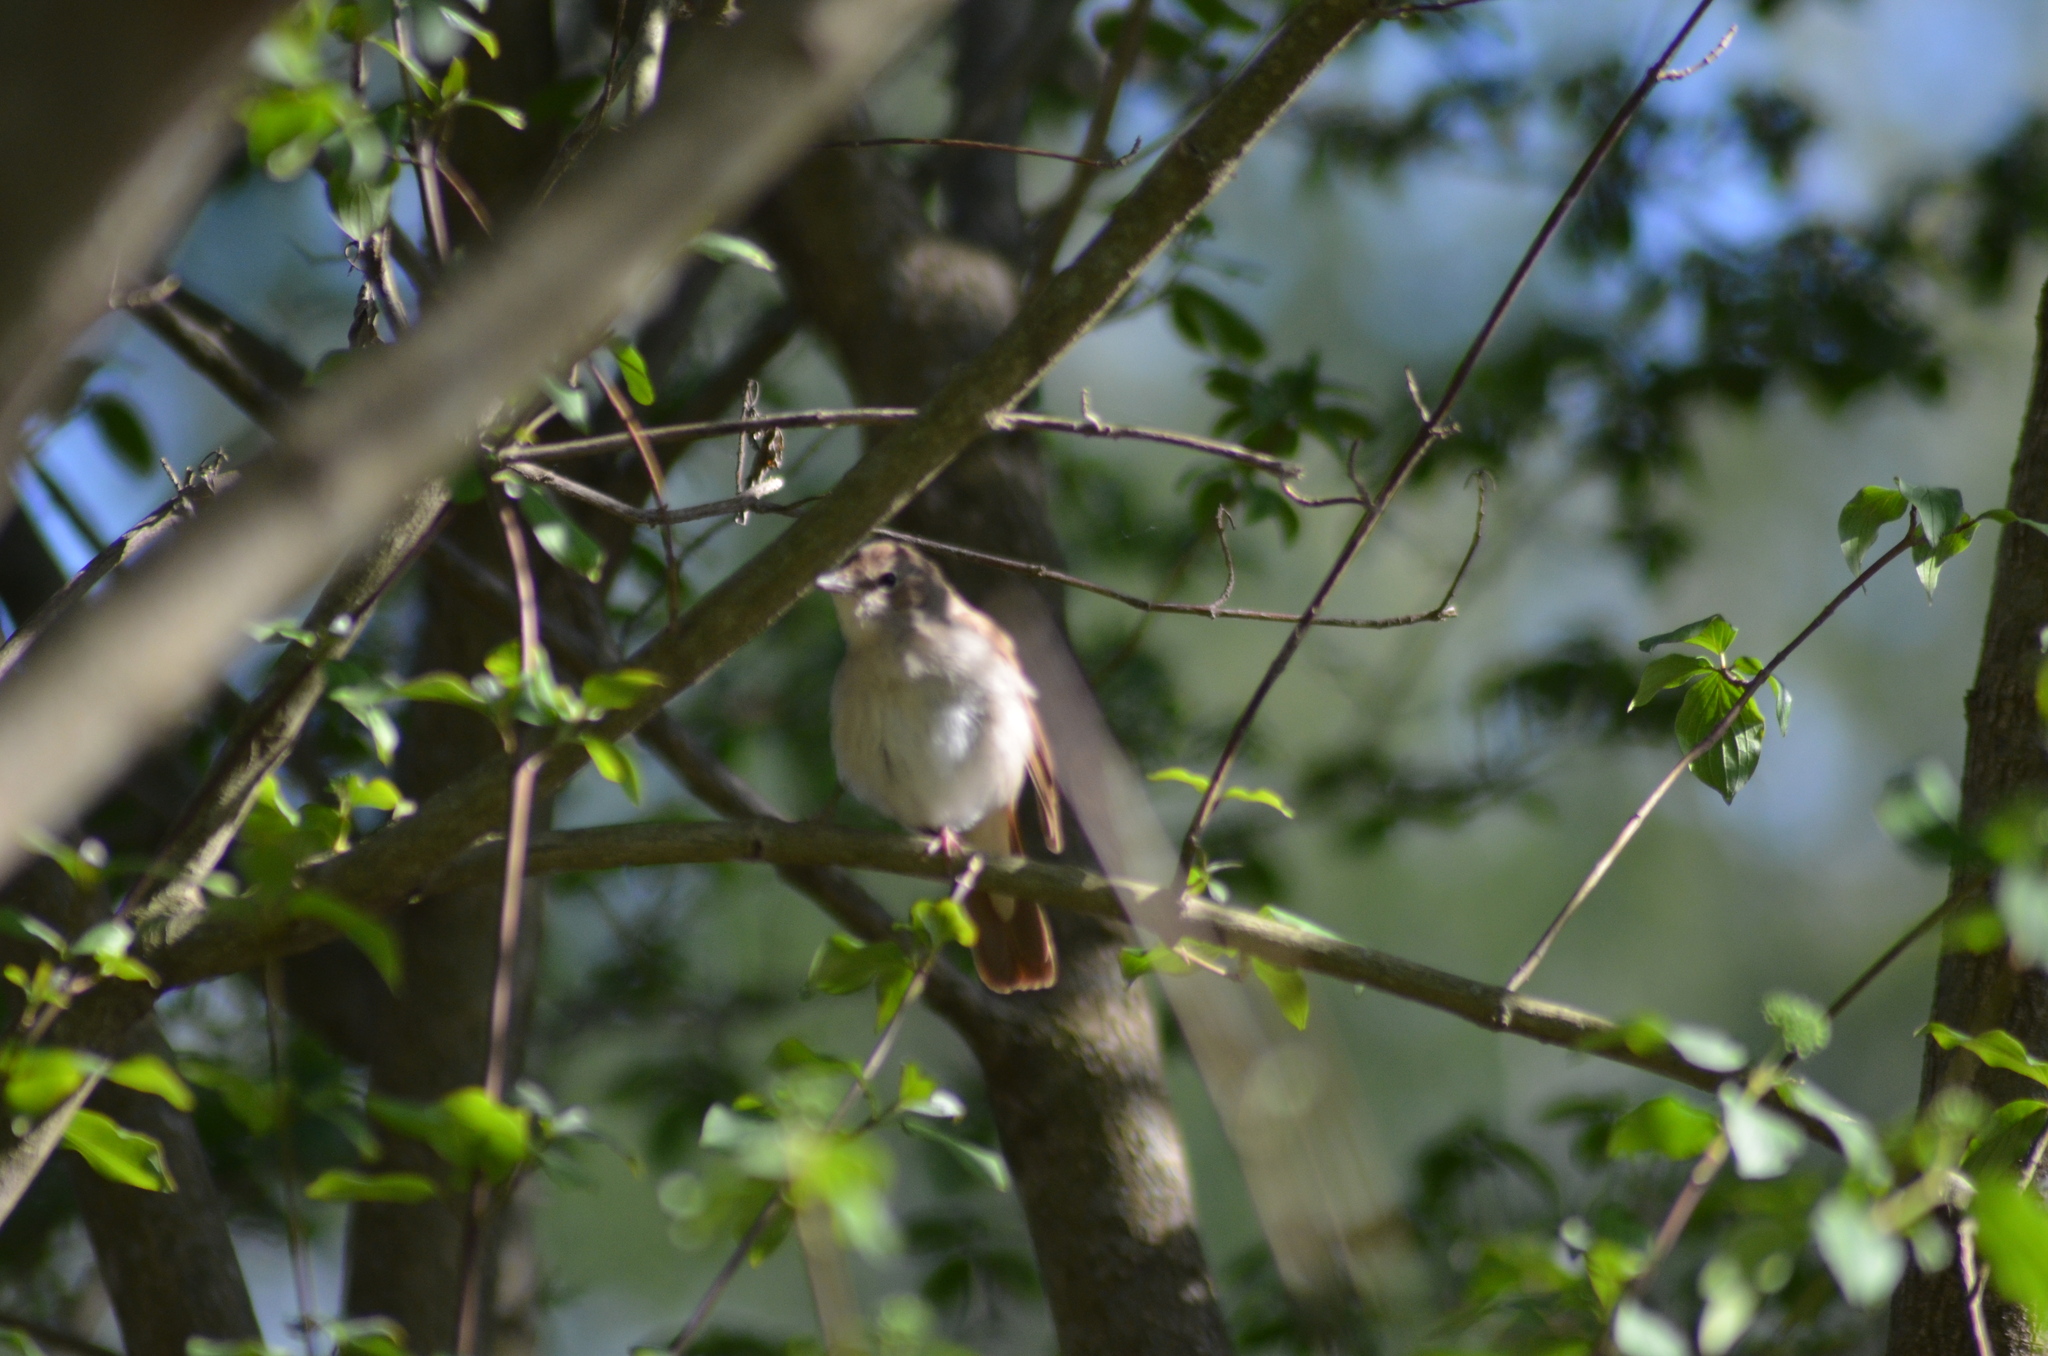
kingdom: Animalia
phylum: Chordata
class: Aves
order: Passeriformes
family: Muscicapidae
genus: Luscinia
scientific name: Luscinia megarhynchos
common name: Common nightingale
